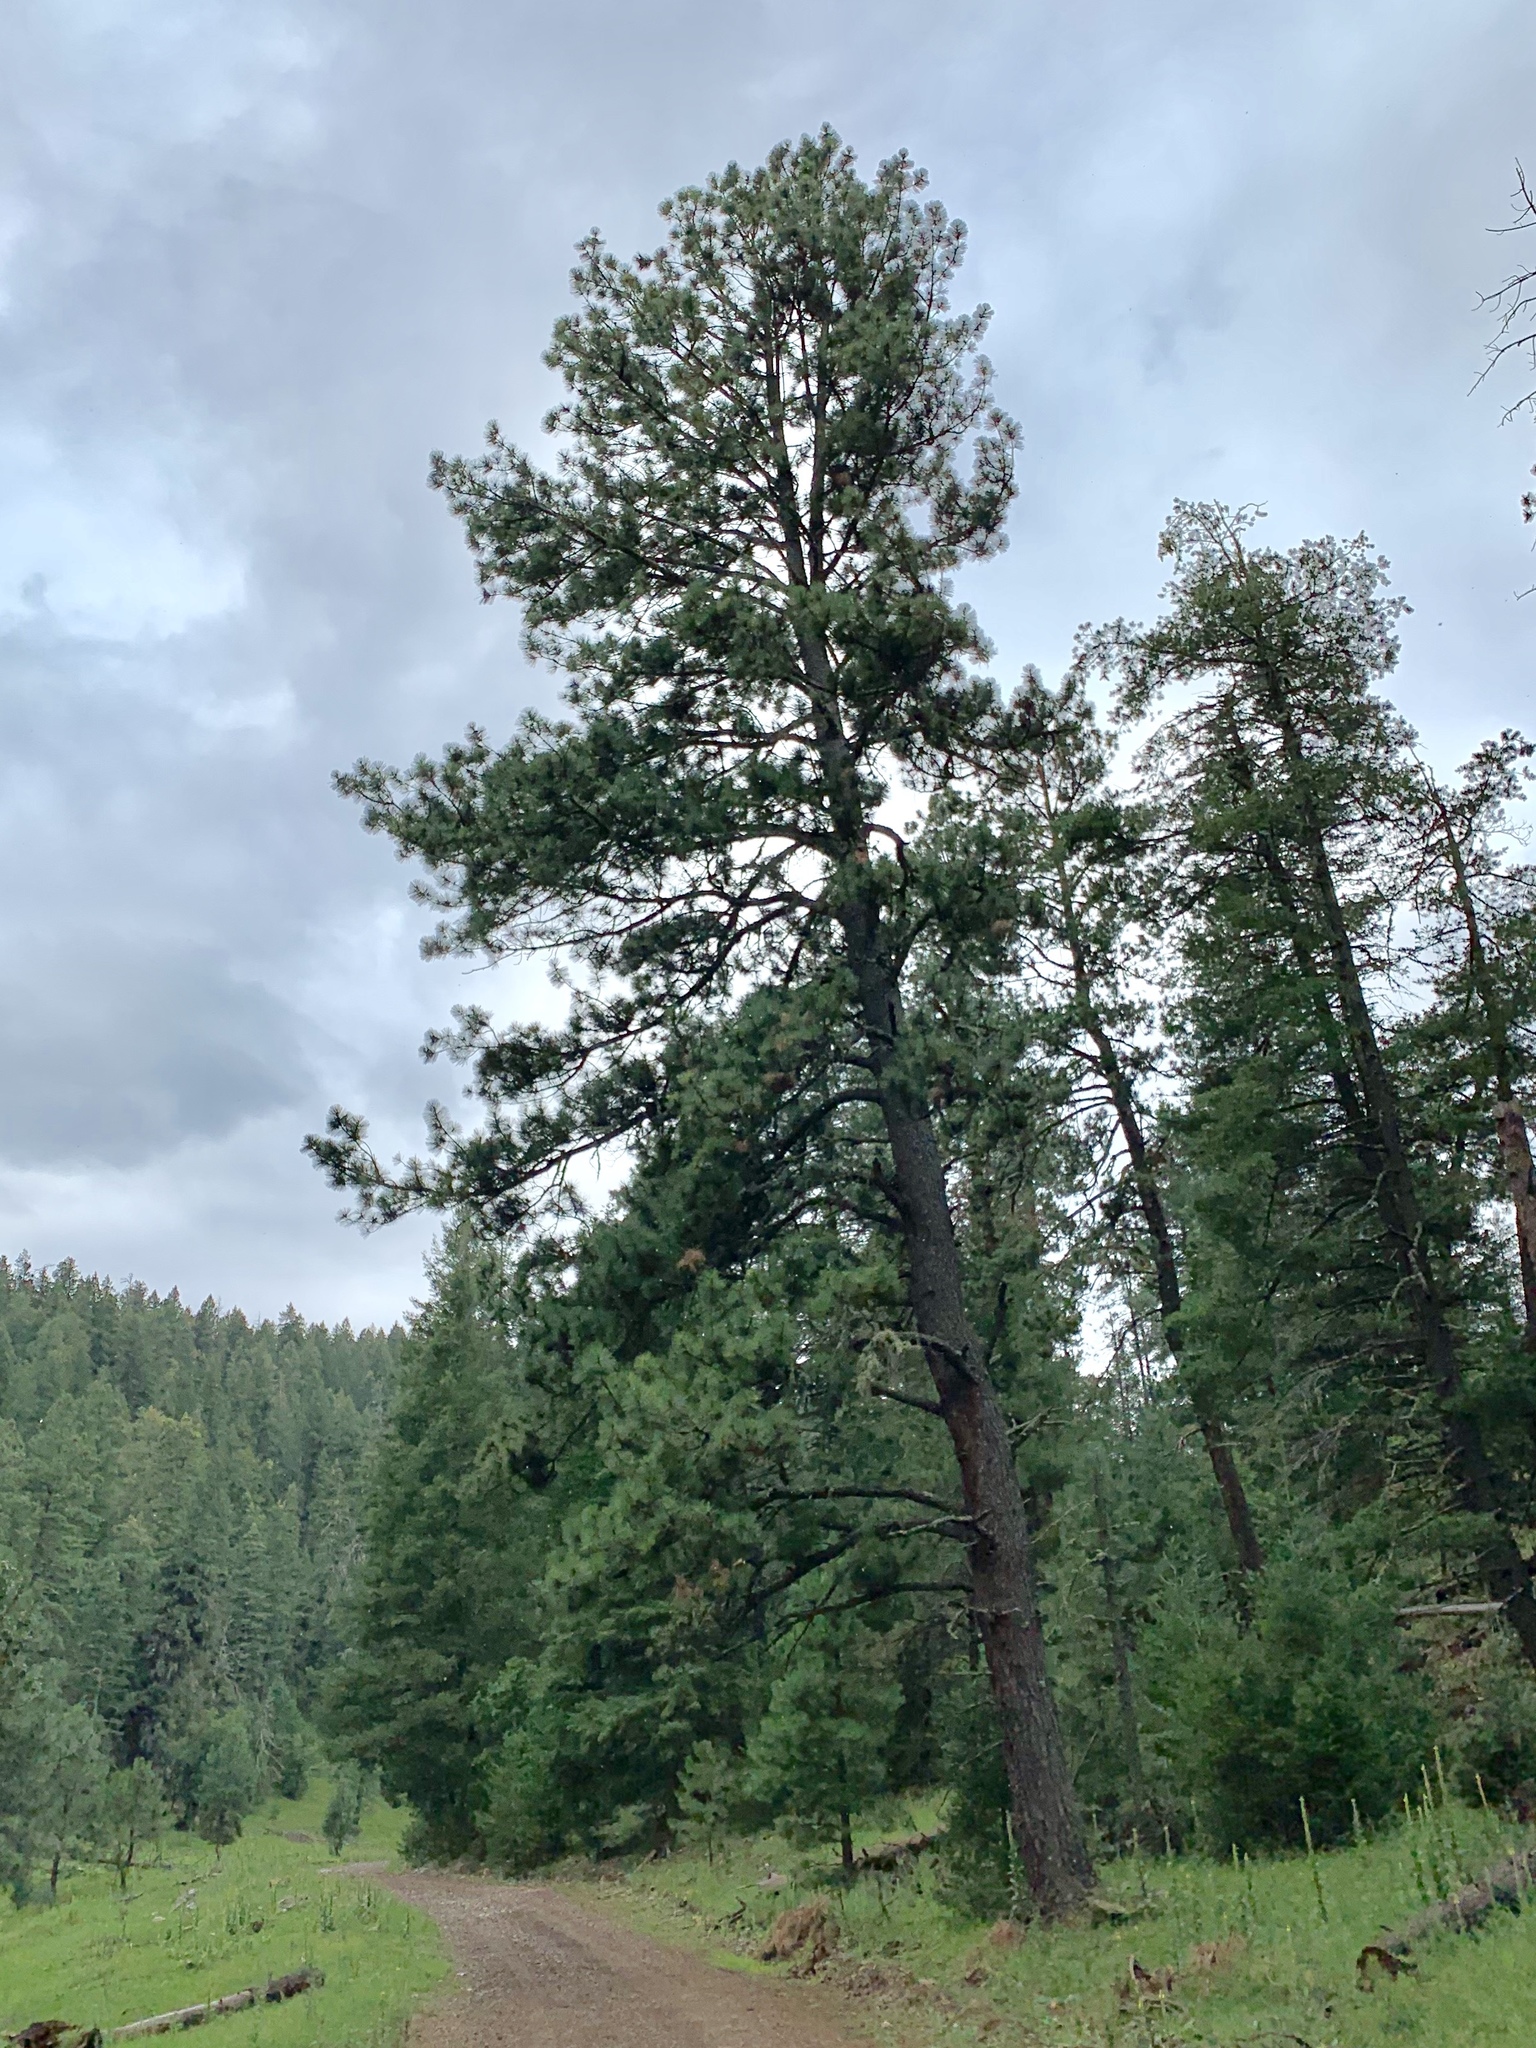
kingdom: Plantae
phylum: Tracheophyta
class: Pinopsida
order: Pinales
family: Pinaceae
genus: Pinus
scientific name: Pinus ponderosa
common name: Western yellow-pine
